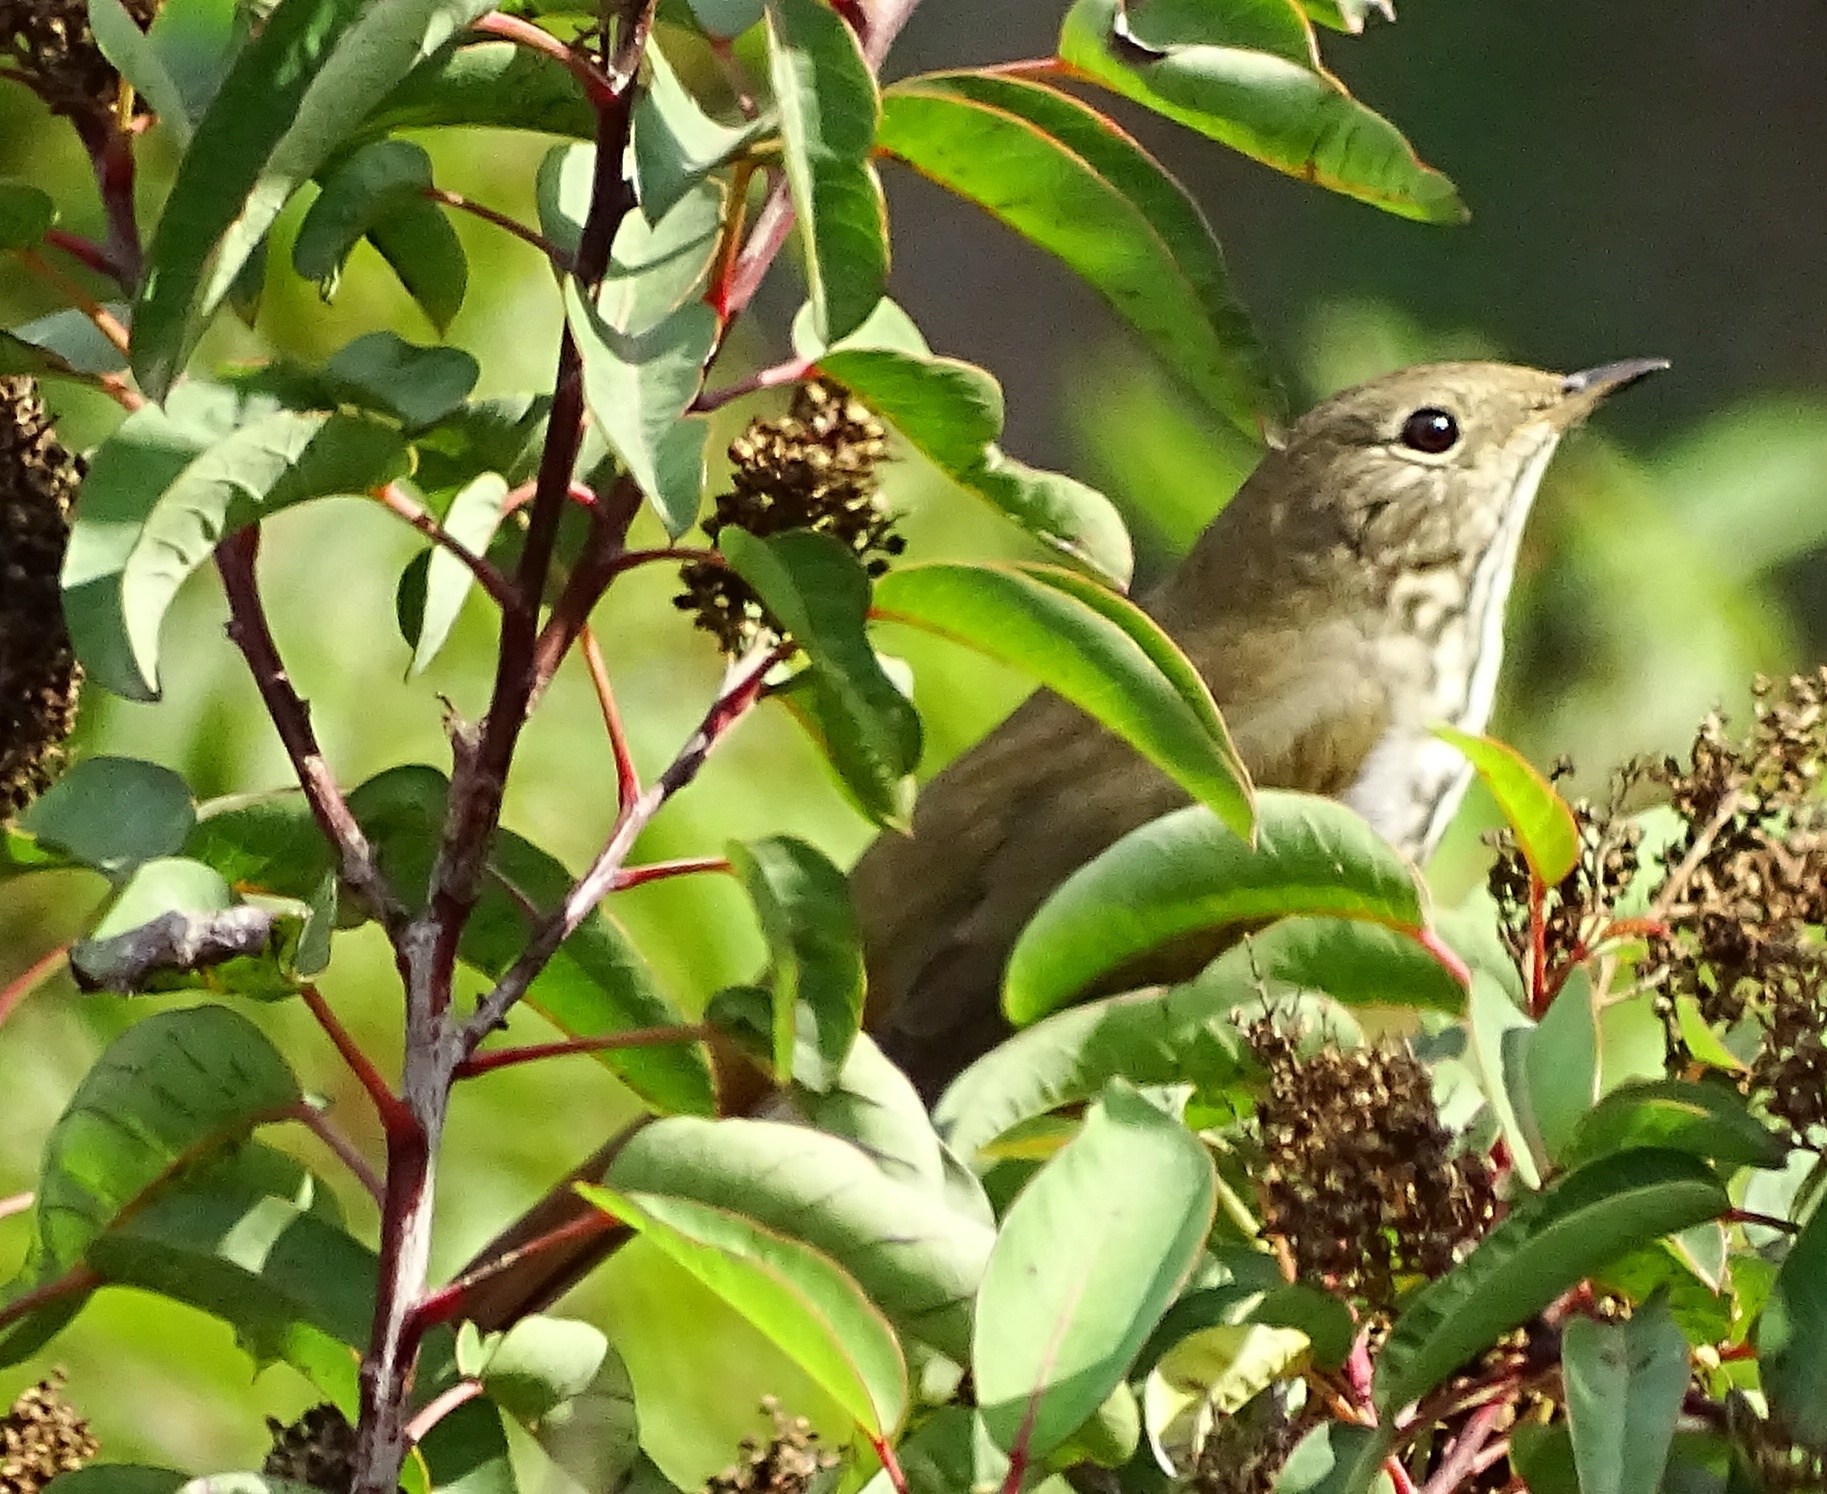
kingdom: Animalia
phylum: Chordata
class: Aves
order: Passeriformes
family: Turdidae
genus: Catharus
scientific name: Catharus guttatus
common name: Hermit thrush
